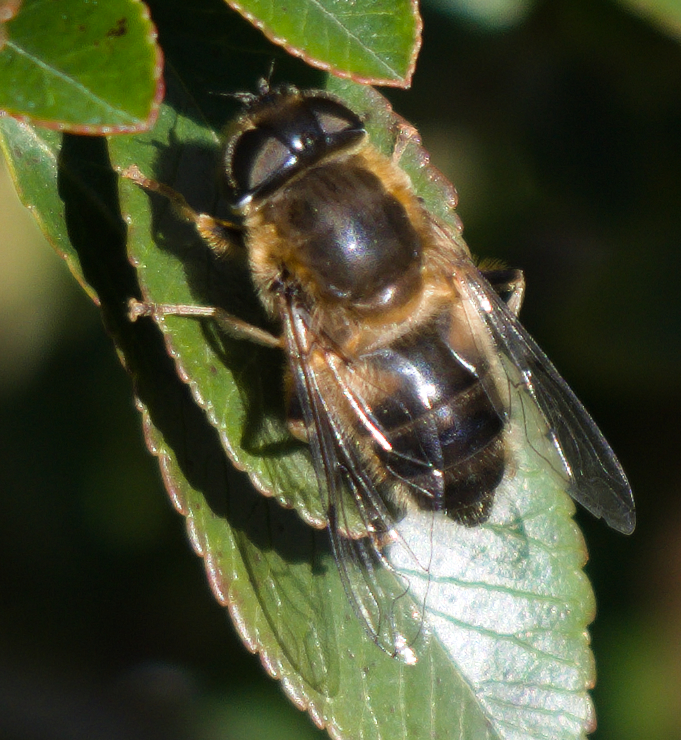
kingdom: Animalia
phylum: Arthropoda
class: Insecta
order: Diptera
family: Syrphidae
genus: Eristalis
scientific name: Eristalis pertinax
